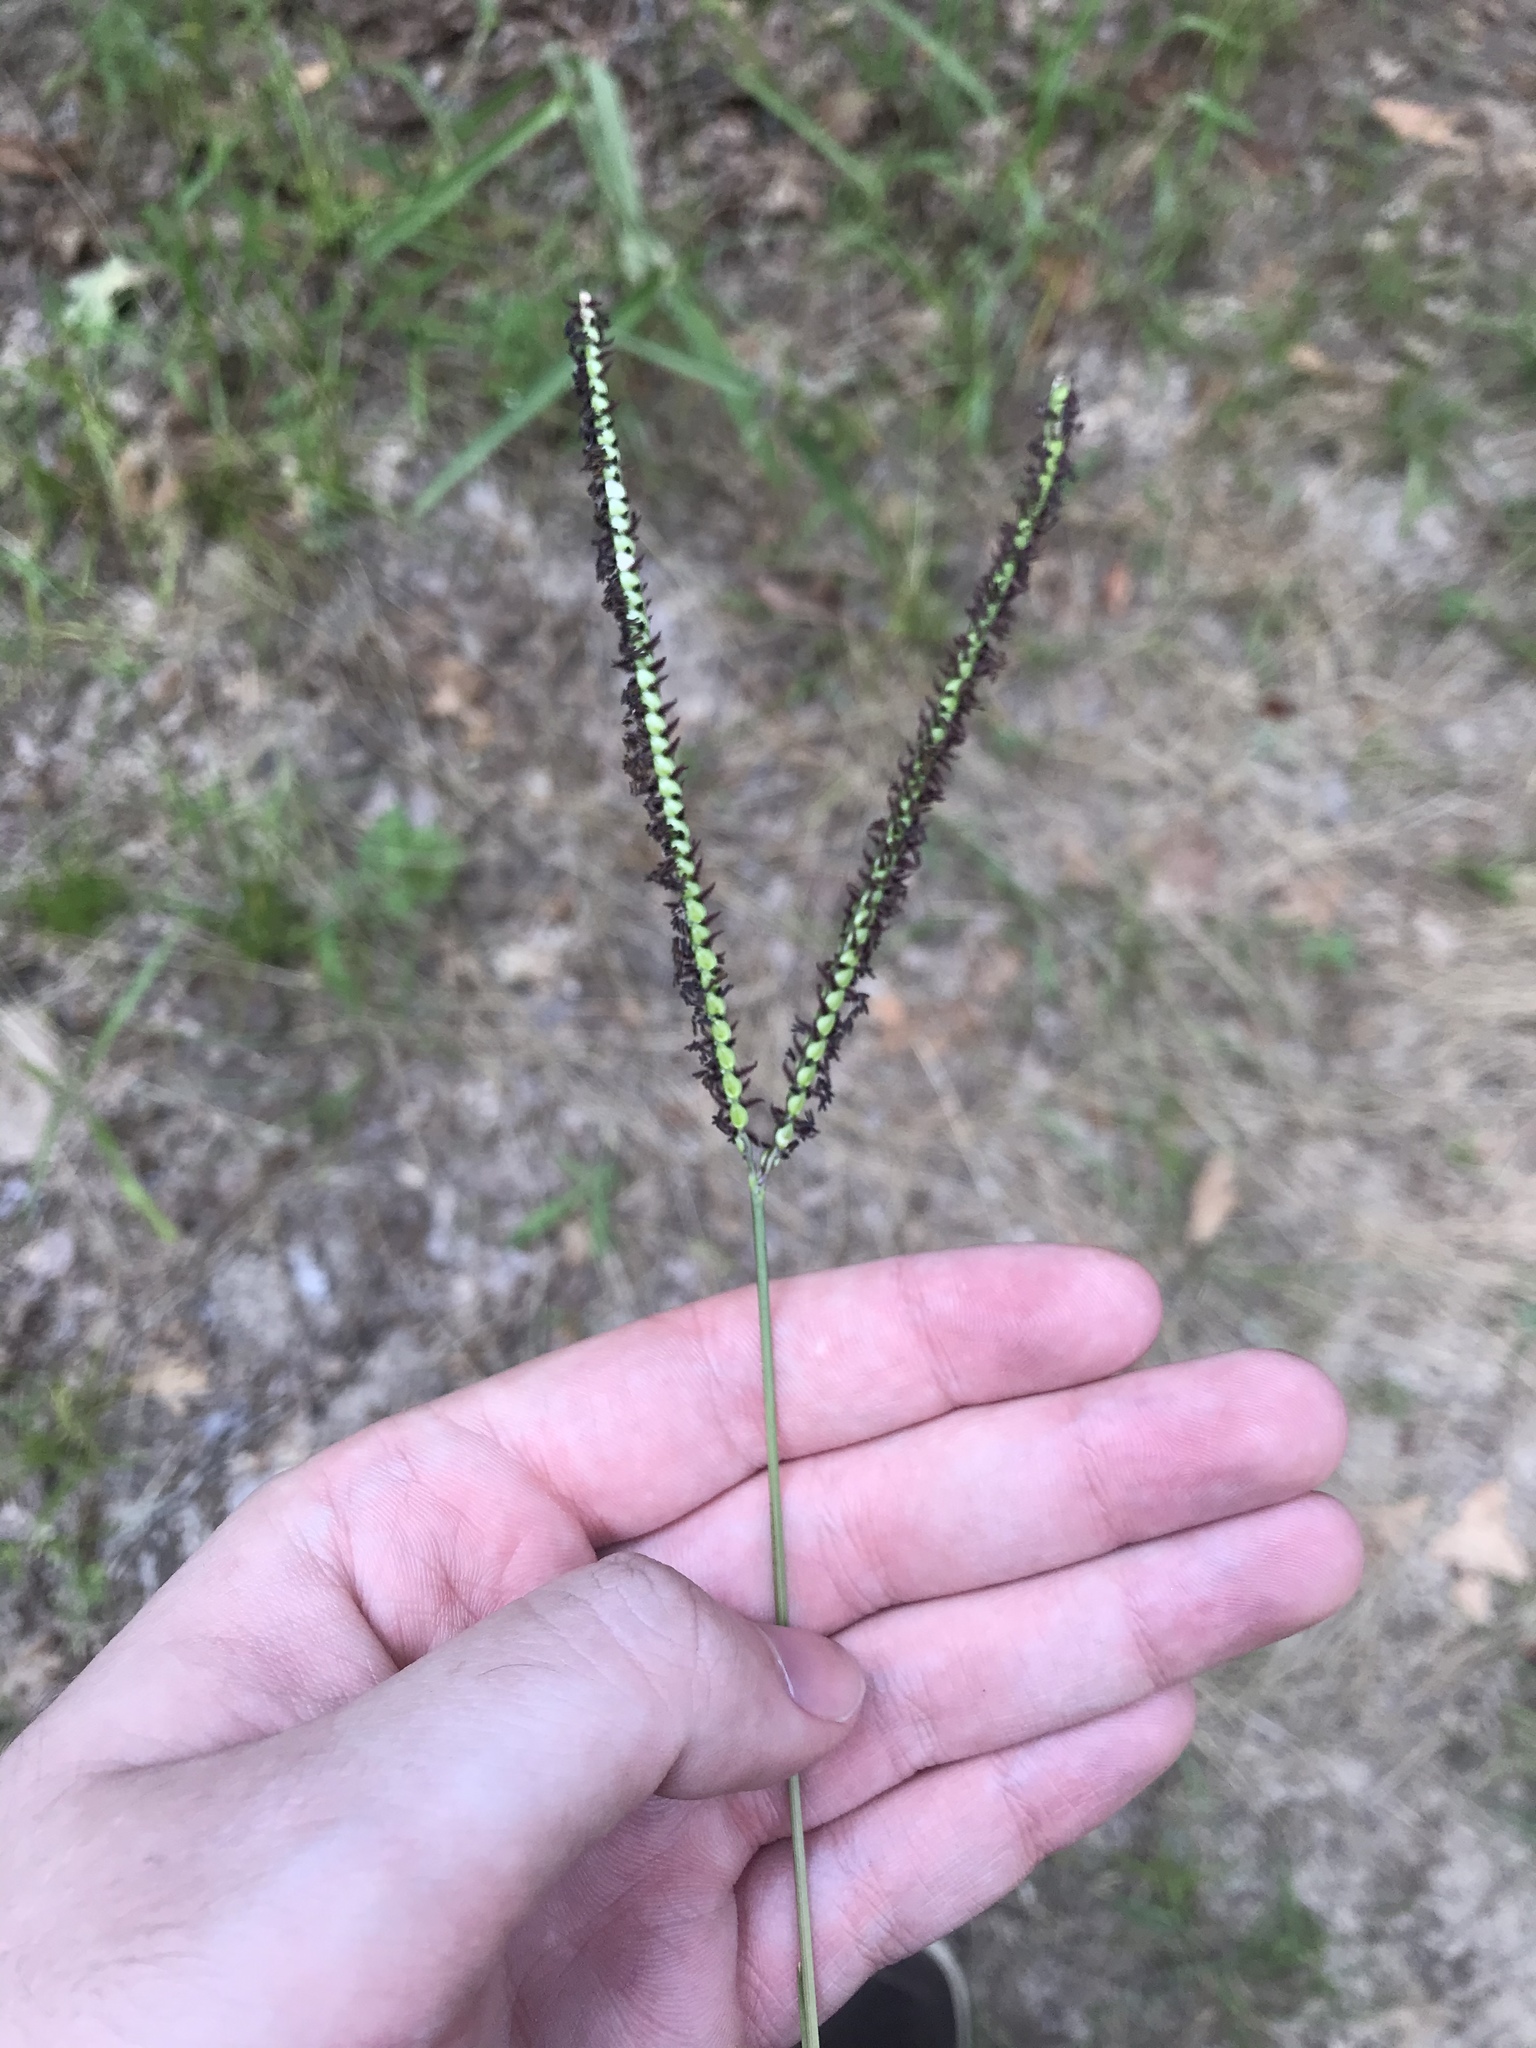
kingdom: Plantae
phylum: Tracheophyta
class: Liliopsida
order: Poales
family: Poaceae
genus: Paspalum
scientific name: Paspalum notatum
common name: Bahiagrass
